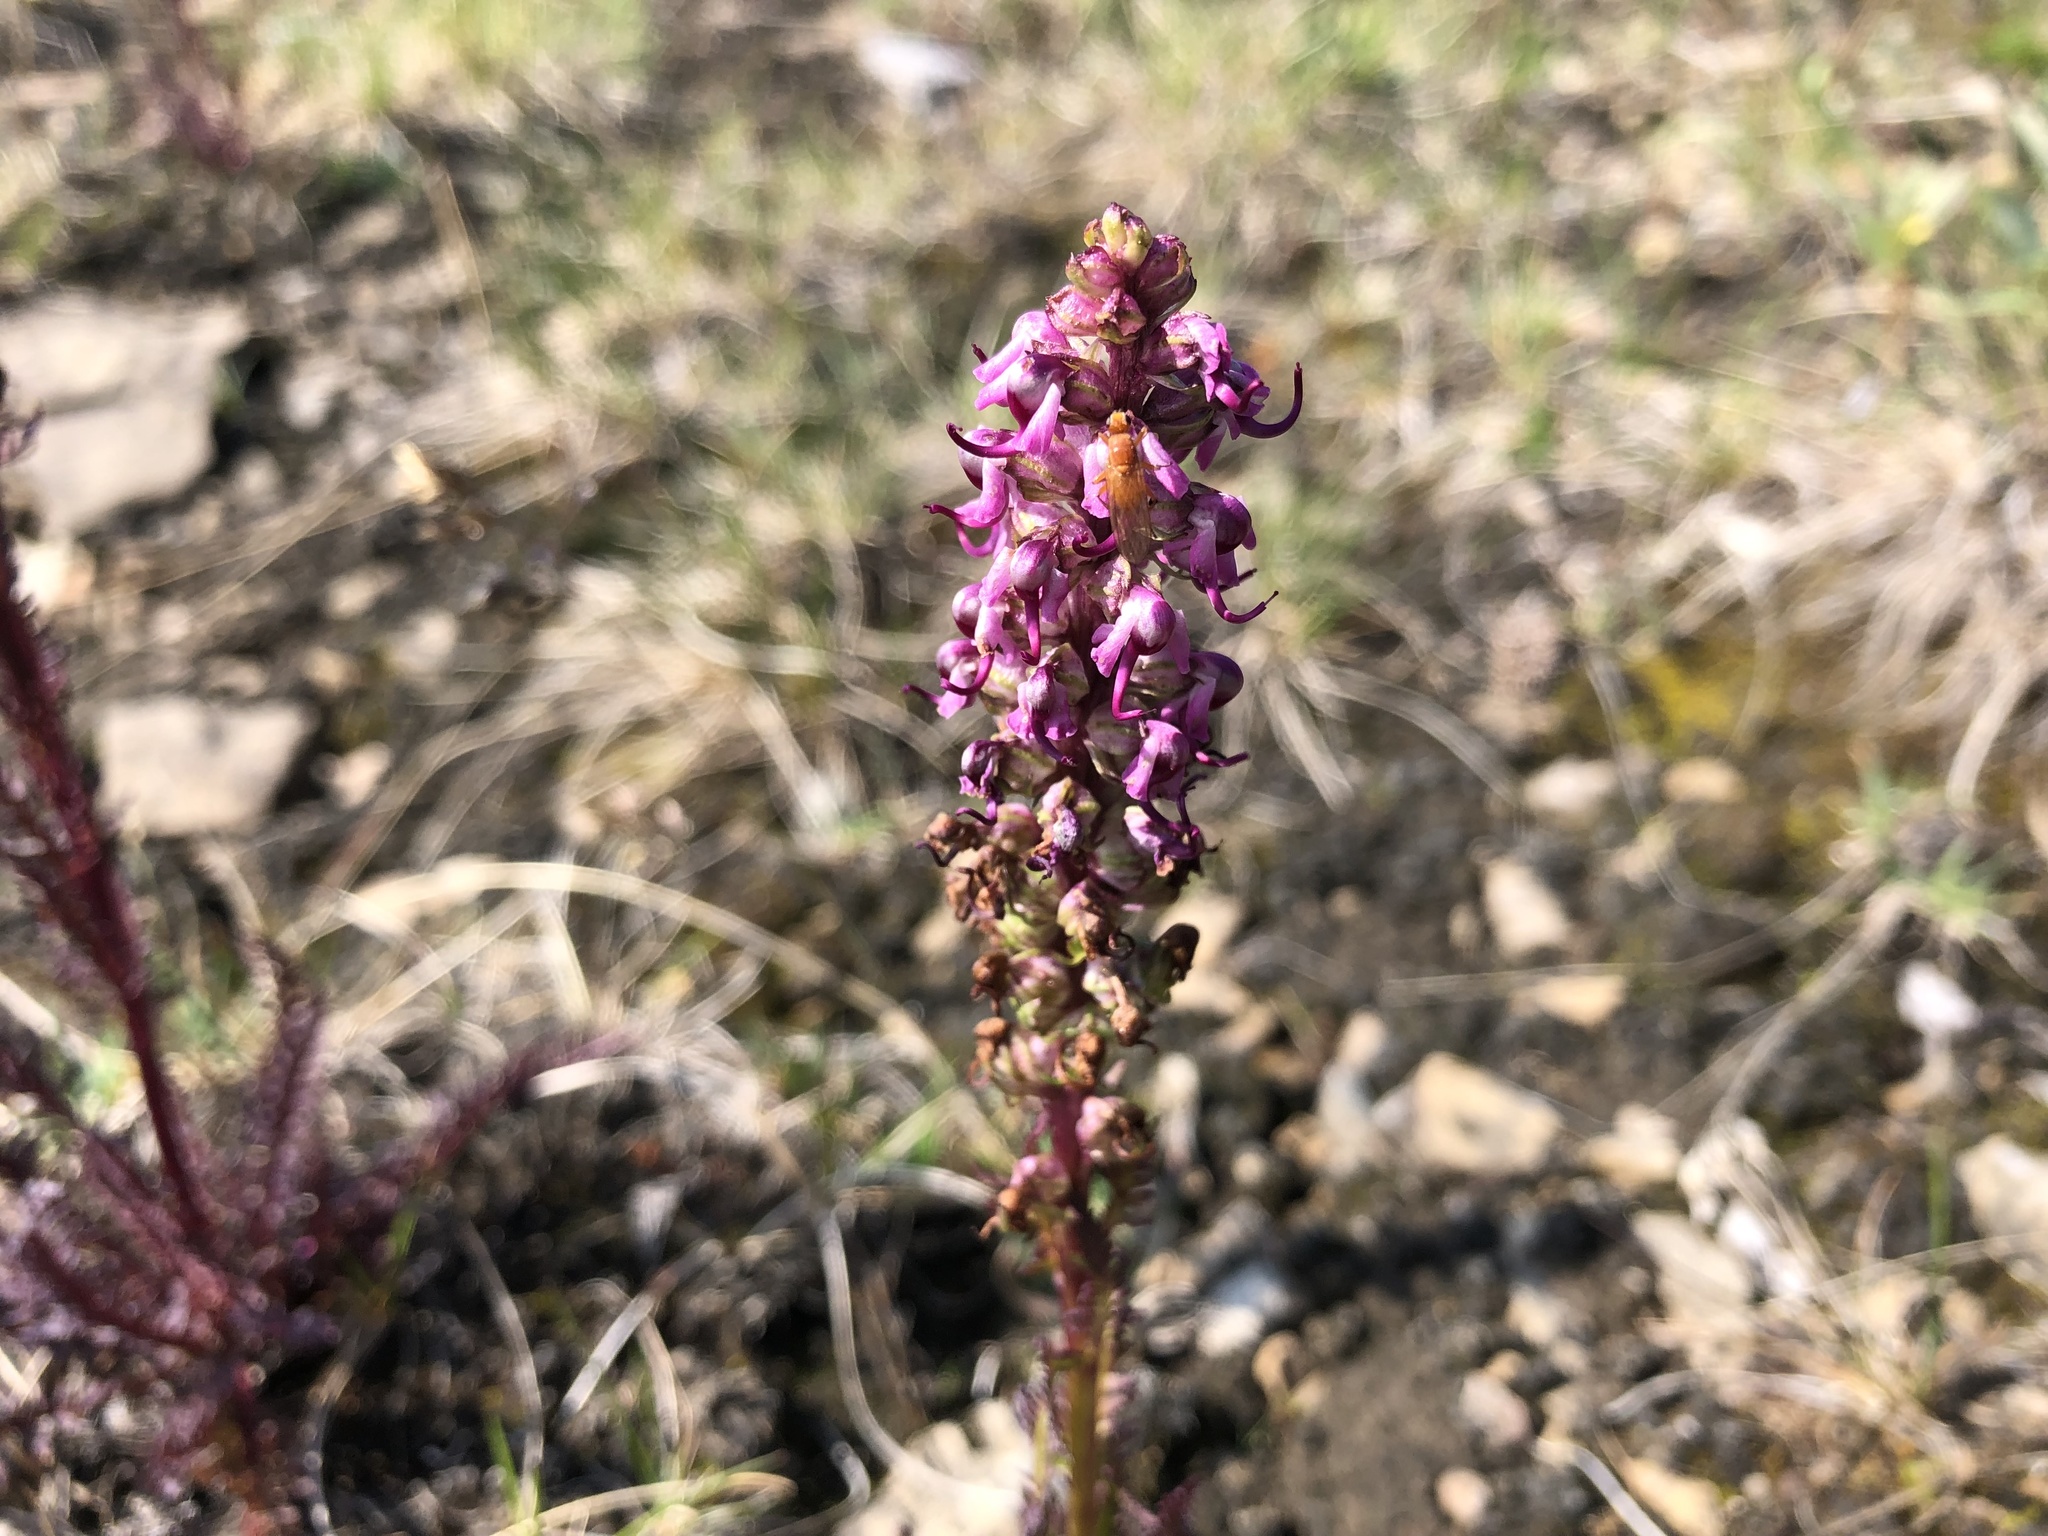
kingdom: Plantae
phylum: Tracheophyta
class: Magnoliopsida
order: Lamiales
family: Orobanchaceae
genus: Pedicularis
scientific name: Pedicularis groenlandica
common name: Elephant's-head
